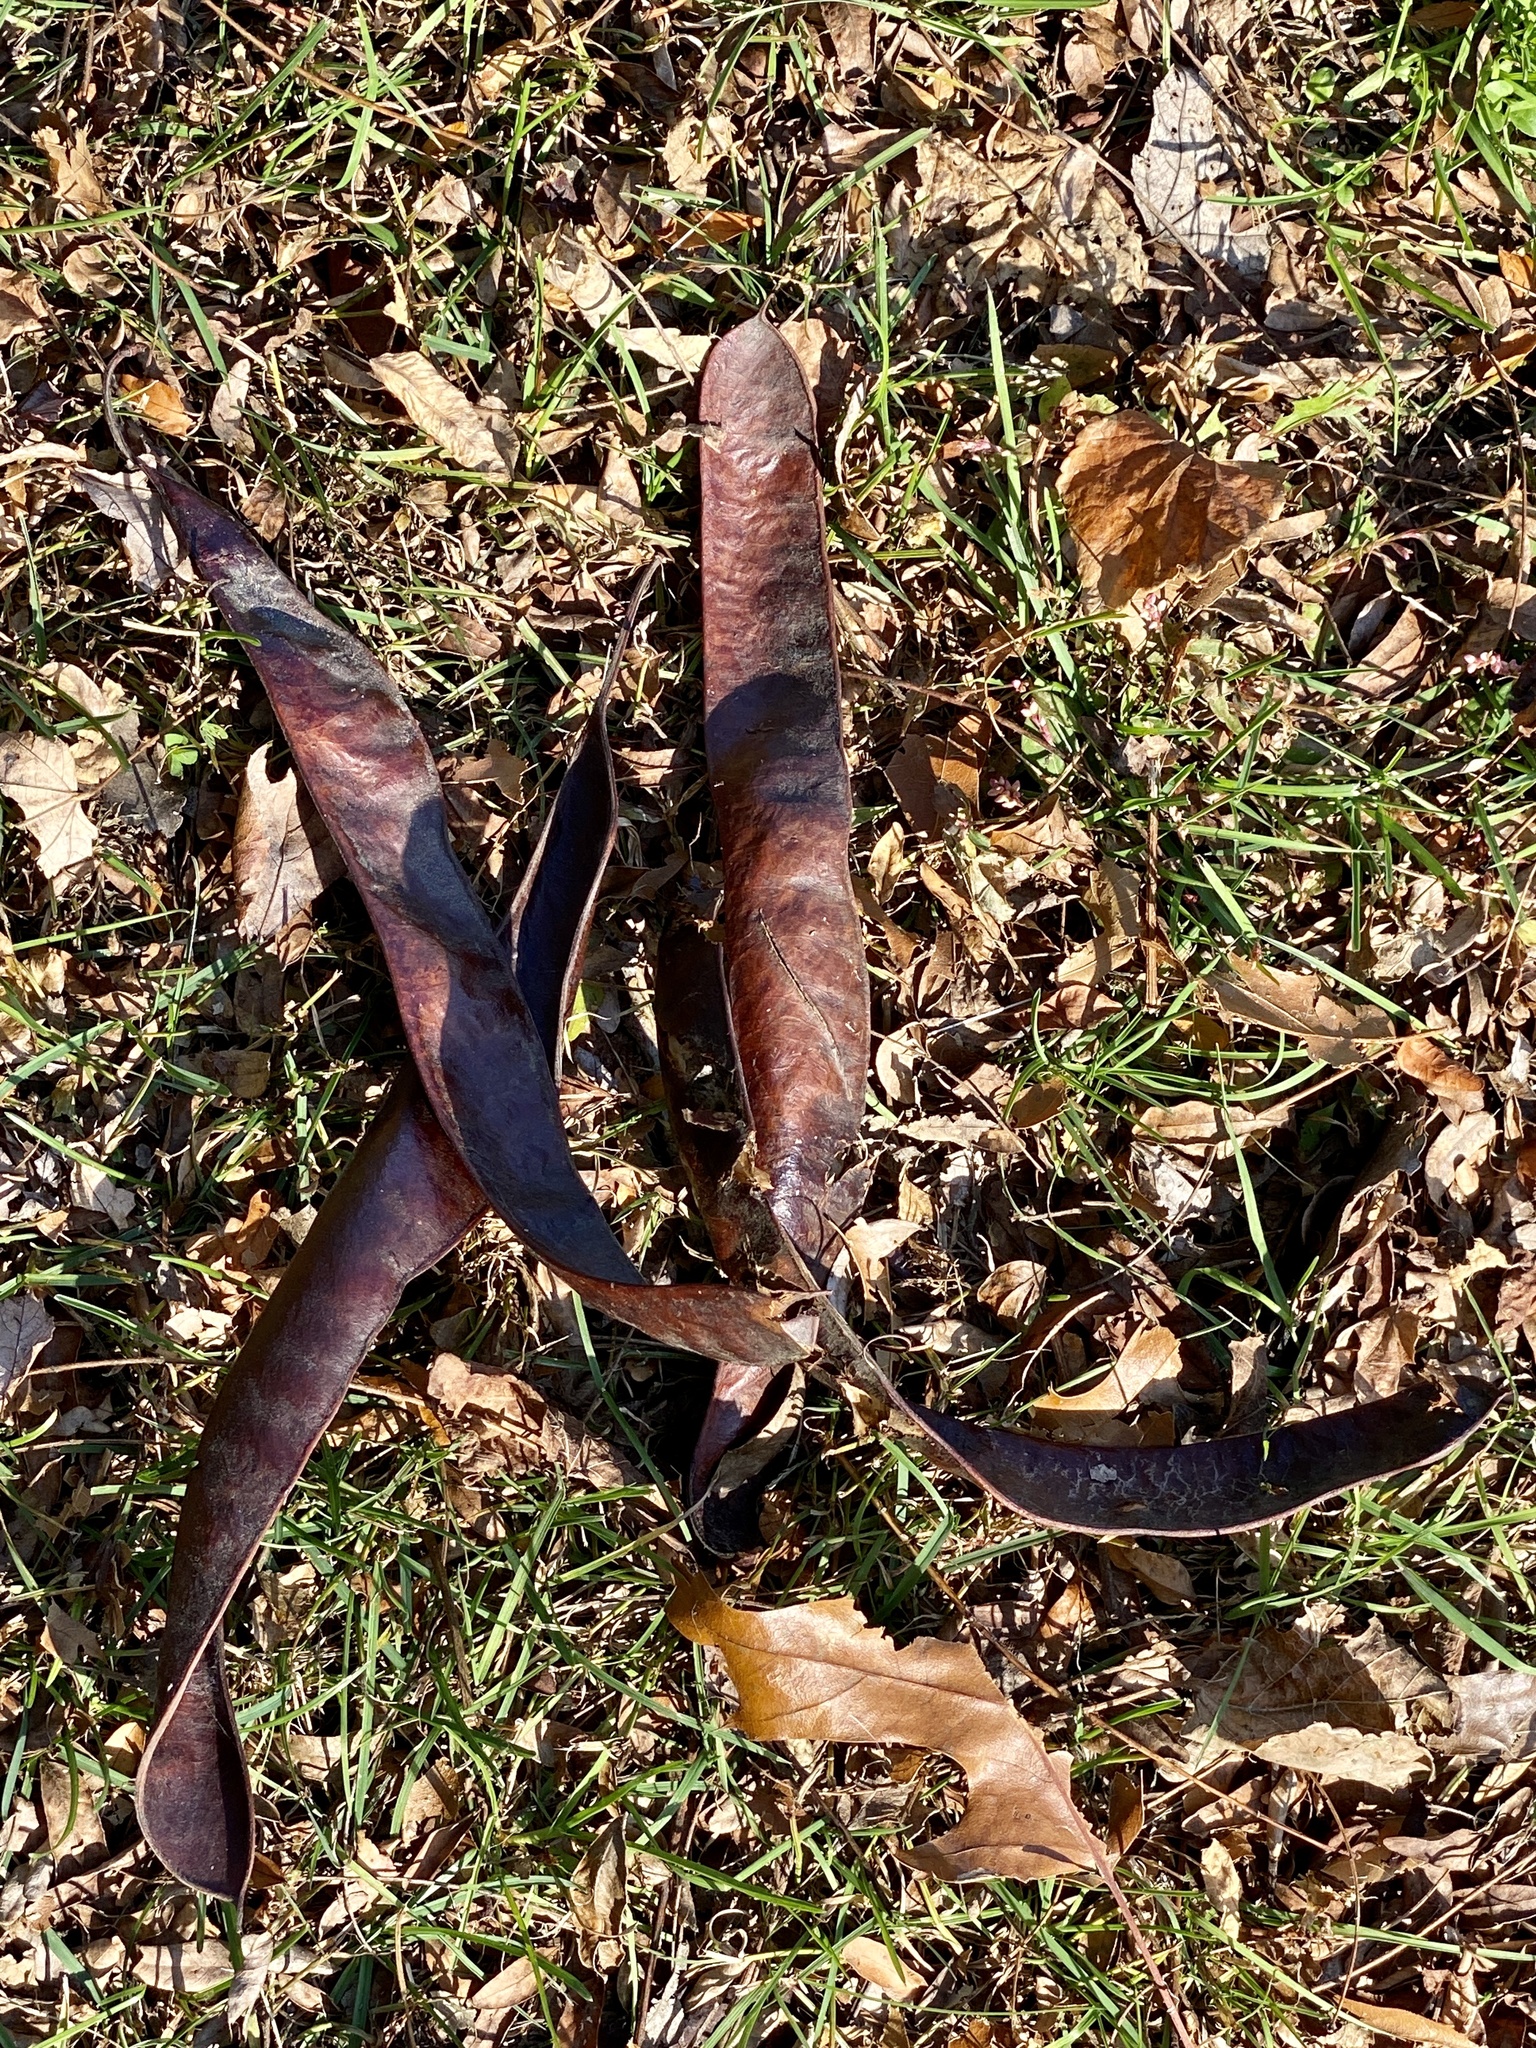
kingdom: Plantae
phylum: Tracheophyta
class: Magnoliopsida
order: Fabales
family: Fabaceae
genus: Gleditsia
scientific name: Gleditsia triacanthos
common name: Common honeylocust
